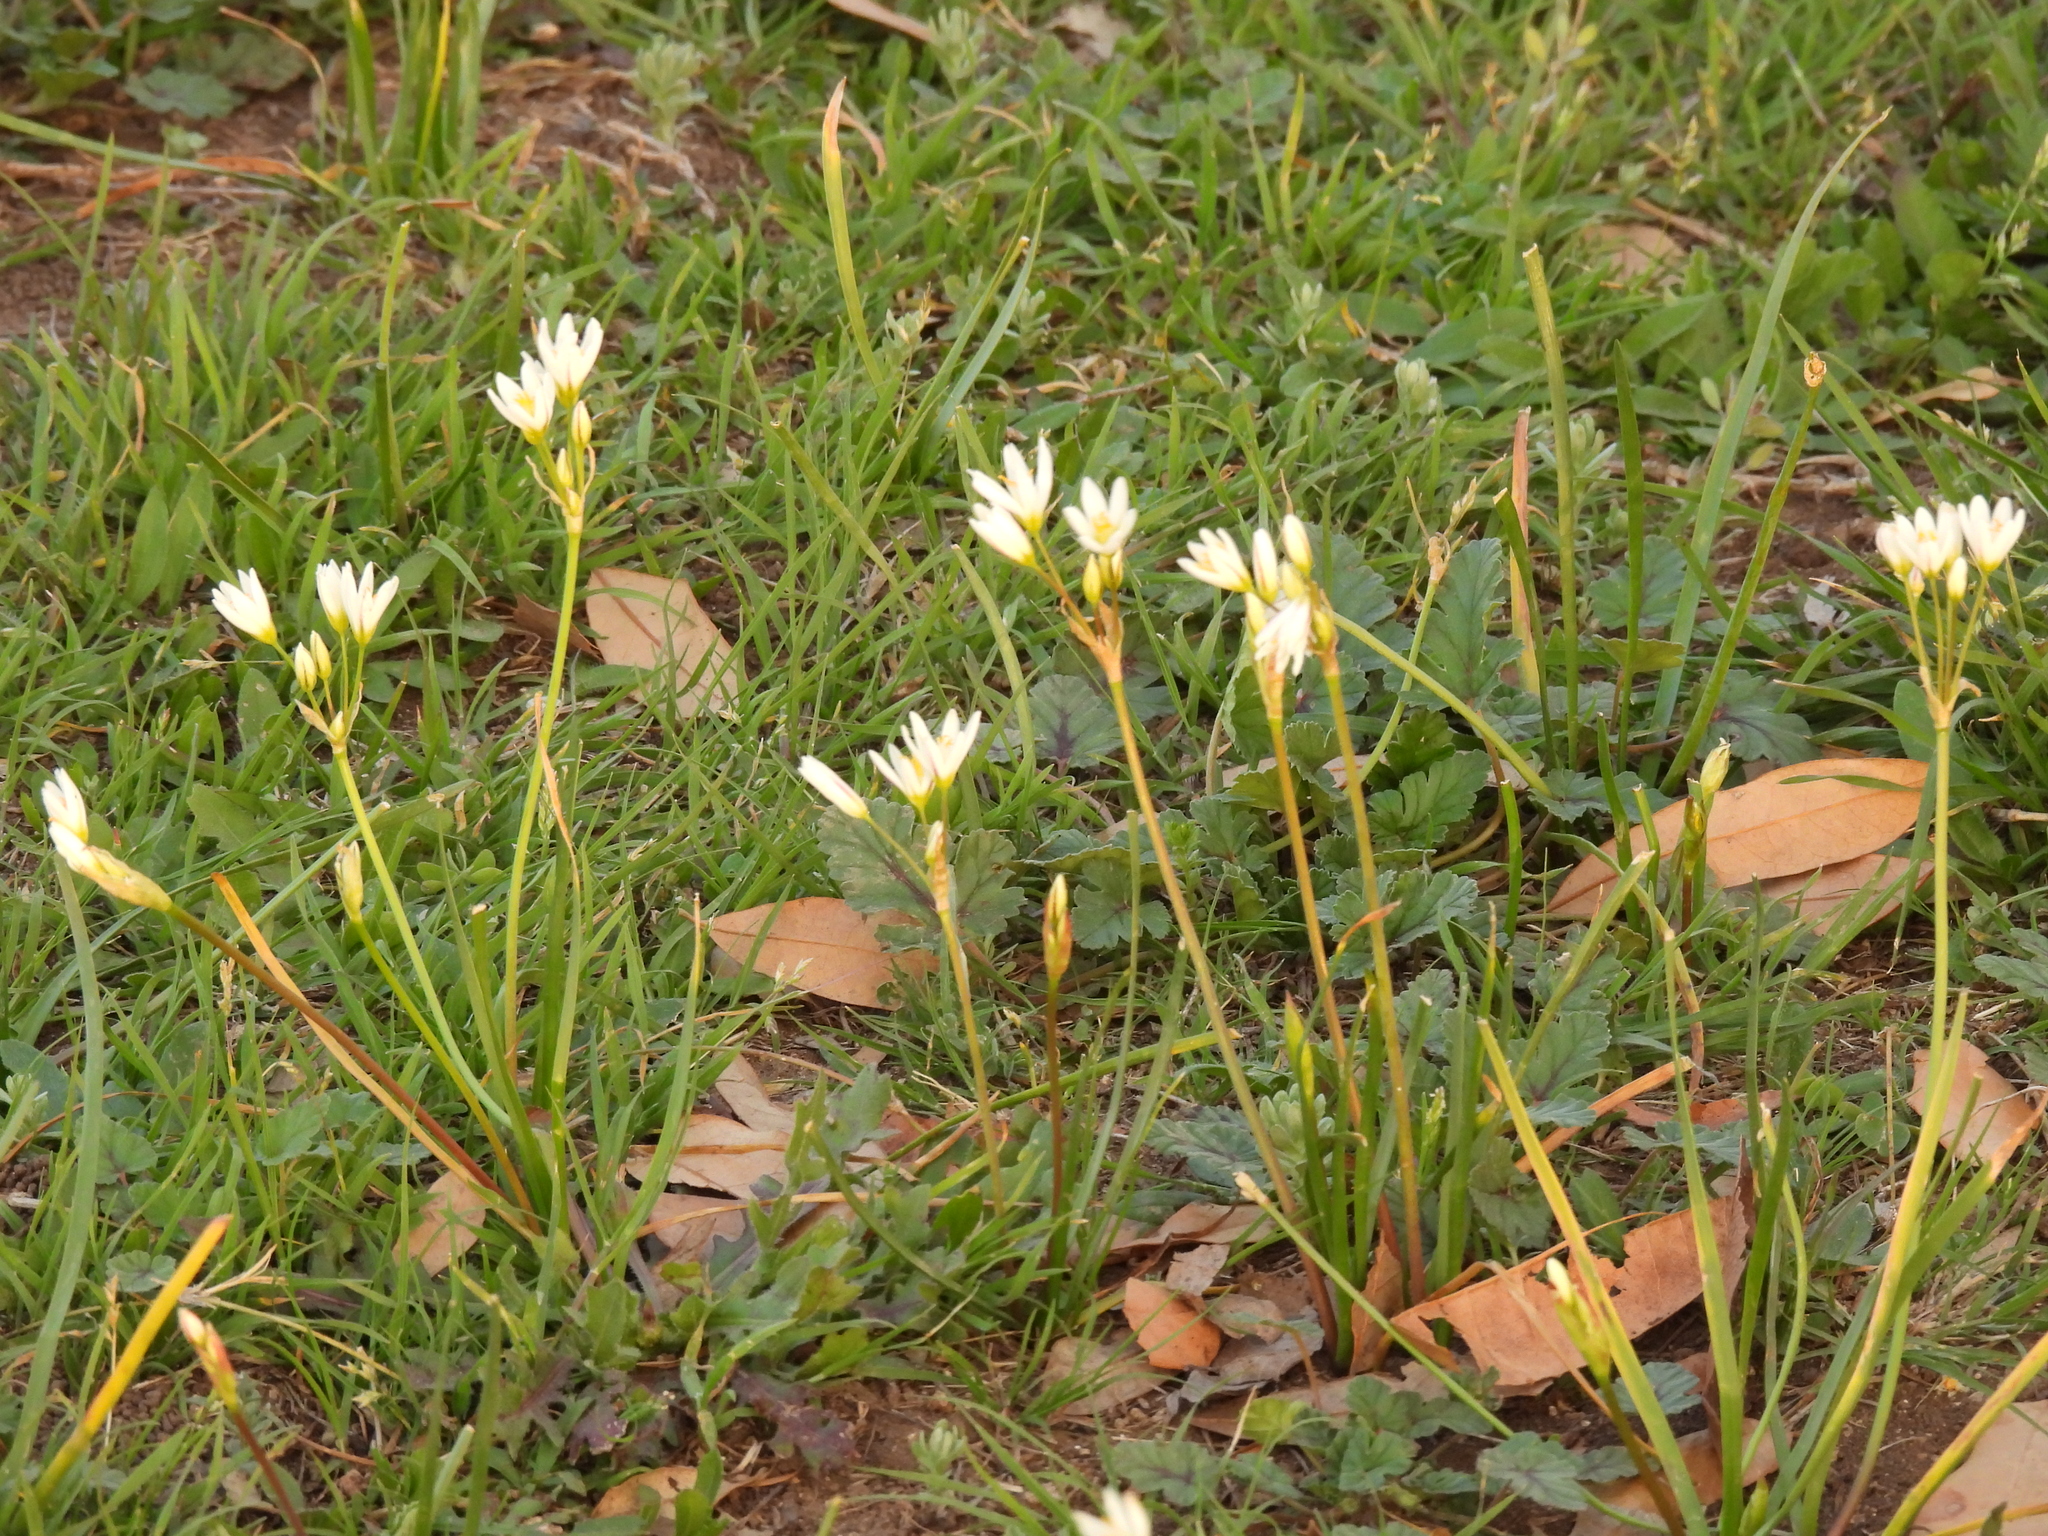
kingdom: Plantae
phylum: Tracheophyta
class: Liliopsida
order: Asparagales
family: Amaryllidaceae
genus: Nothoscordum
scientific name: Nothoscordum bivalve
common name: Crow-poison
